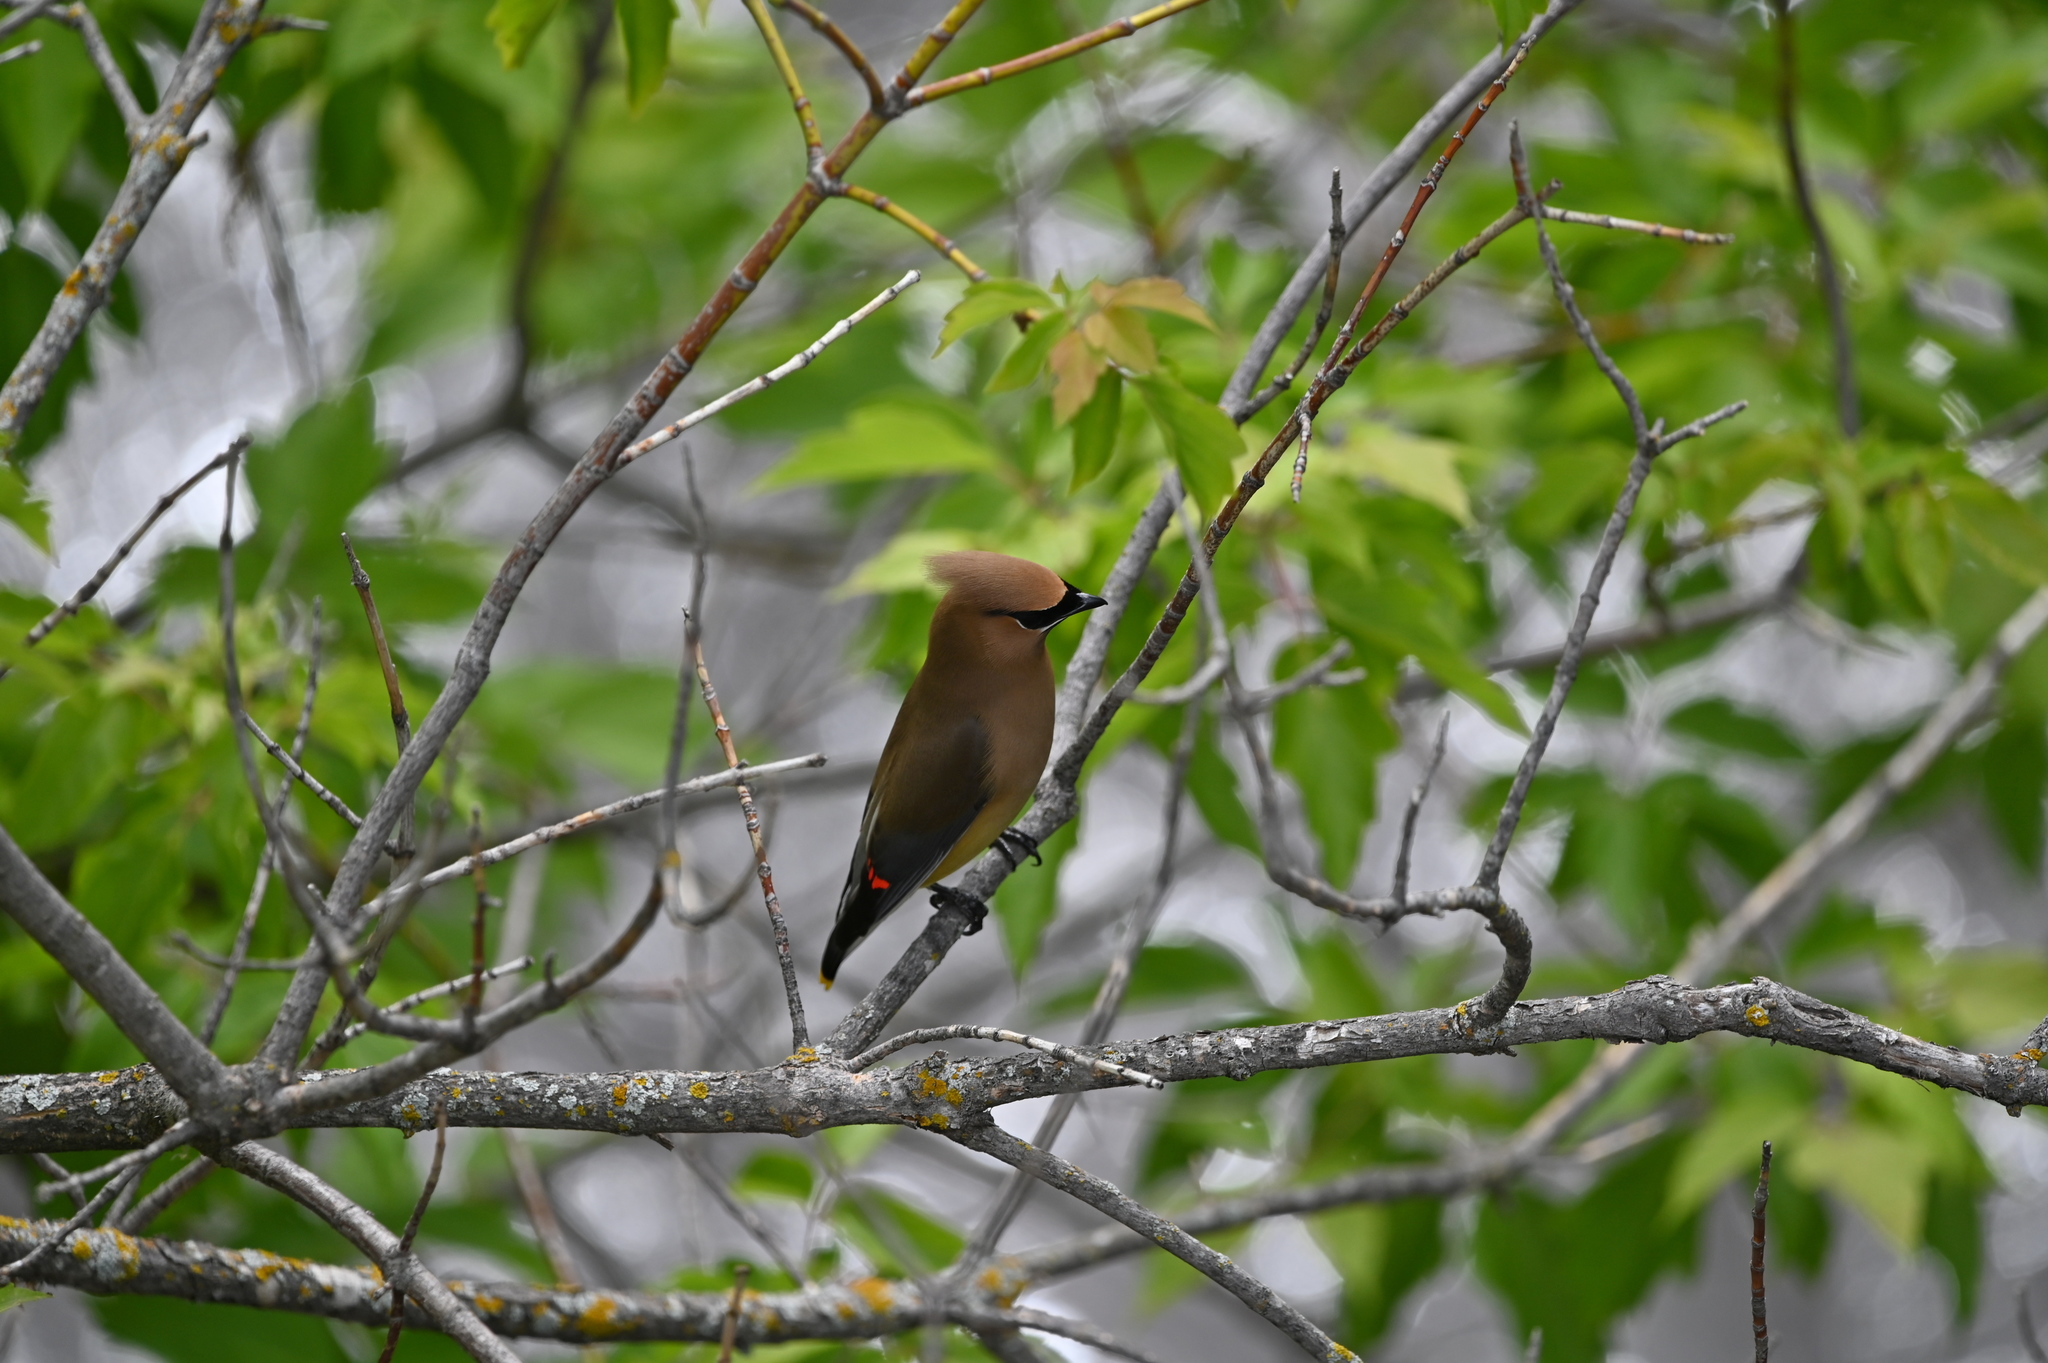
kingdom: Animalia
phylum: Chordata
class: Aves
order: Passeriformes
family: Bombycillidae
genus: Bombycilla
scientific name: Bombycilla cedrorum
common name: Cedar waxwing
